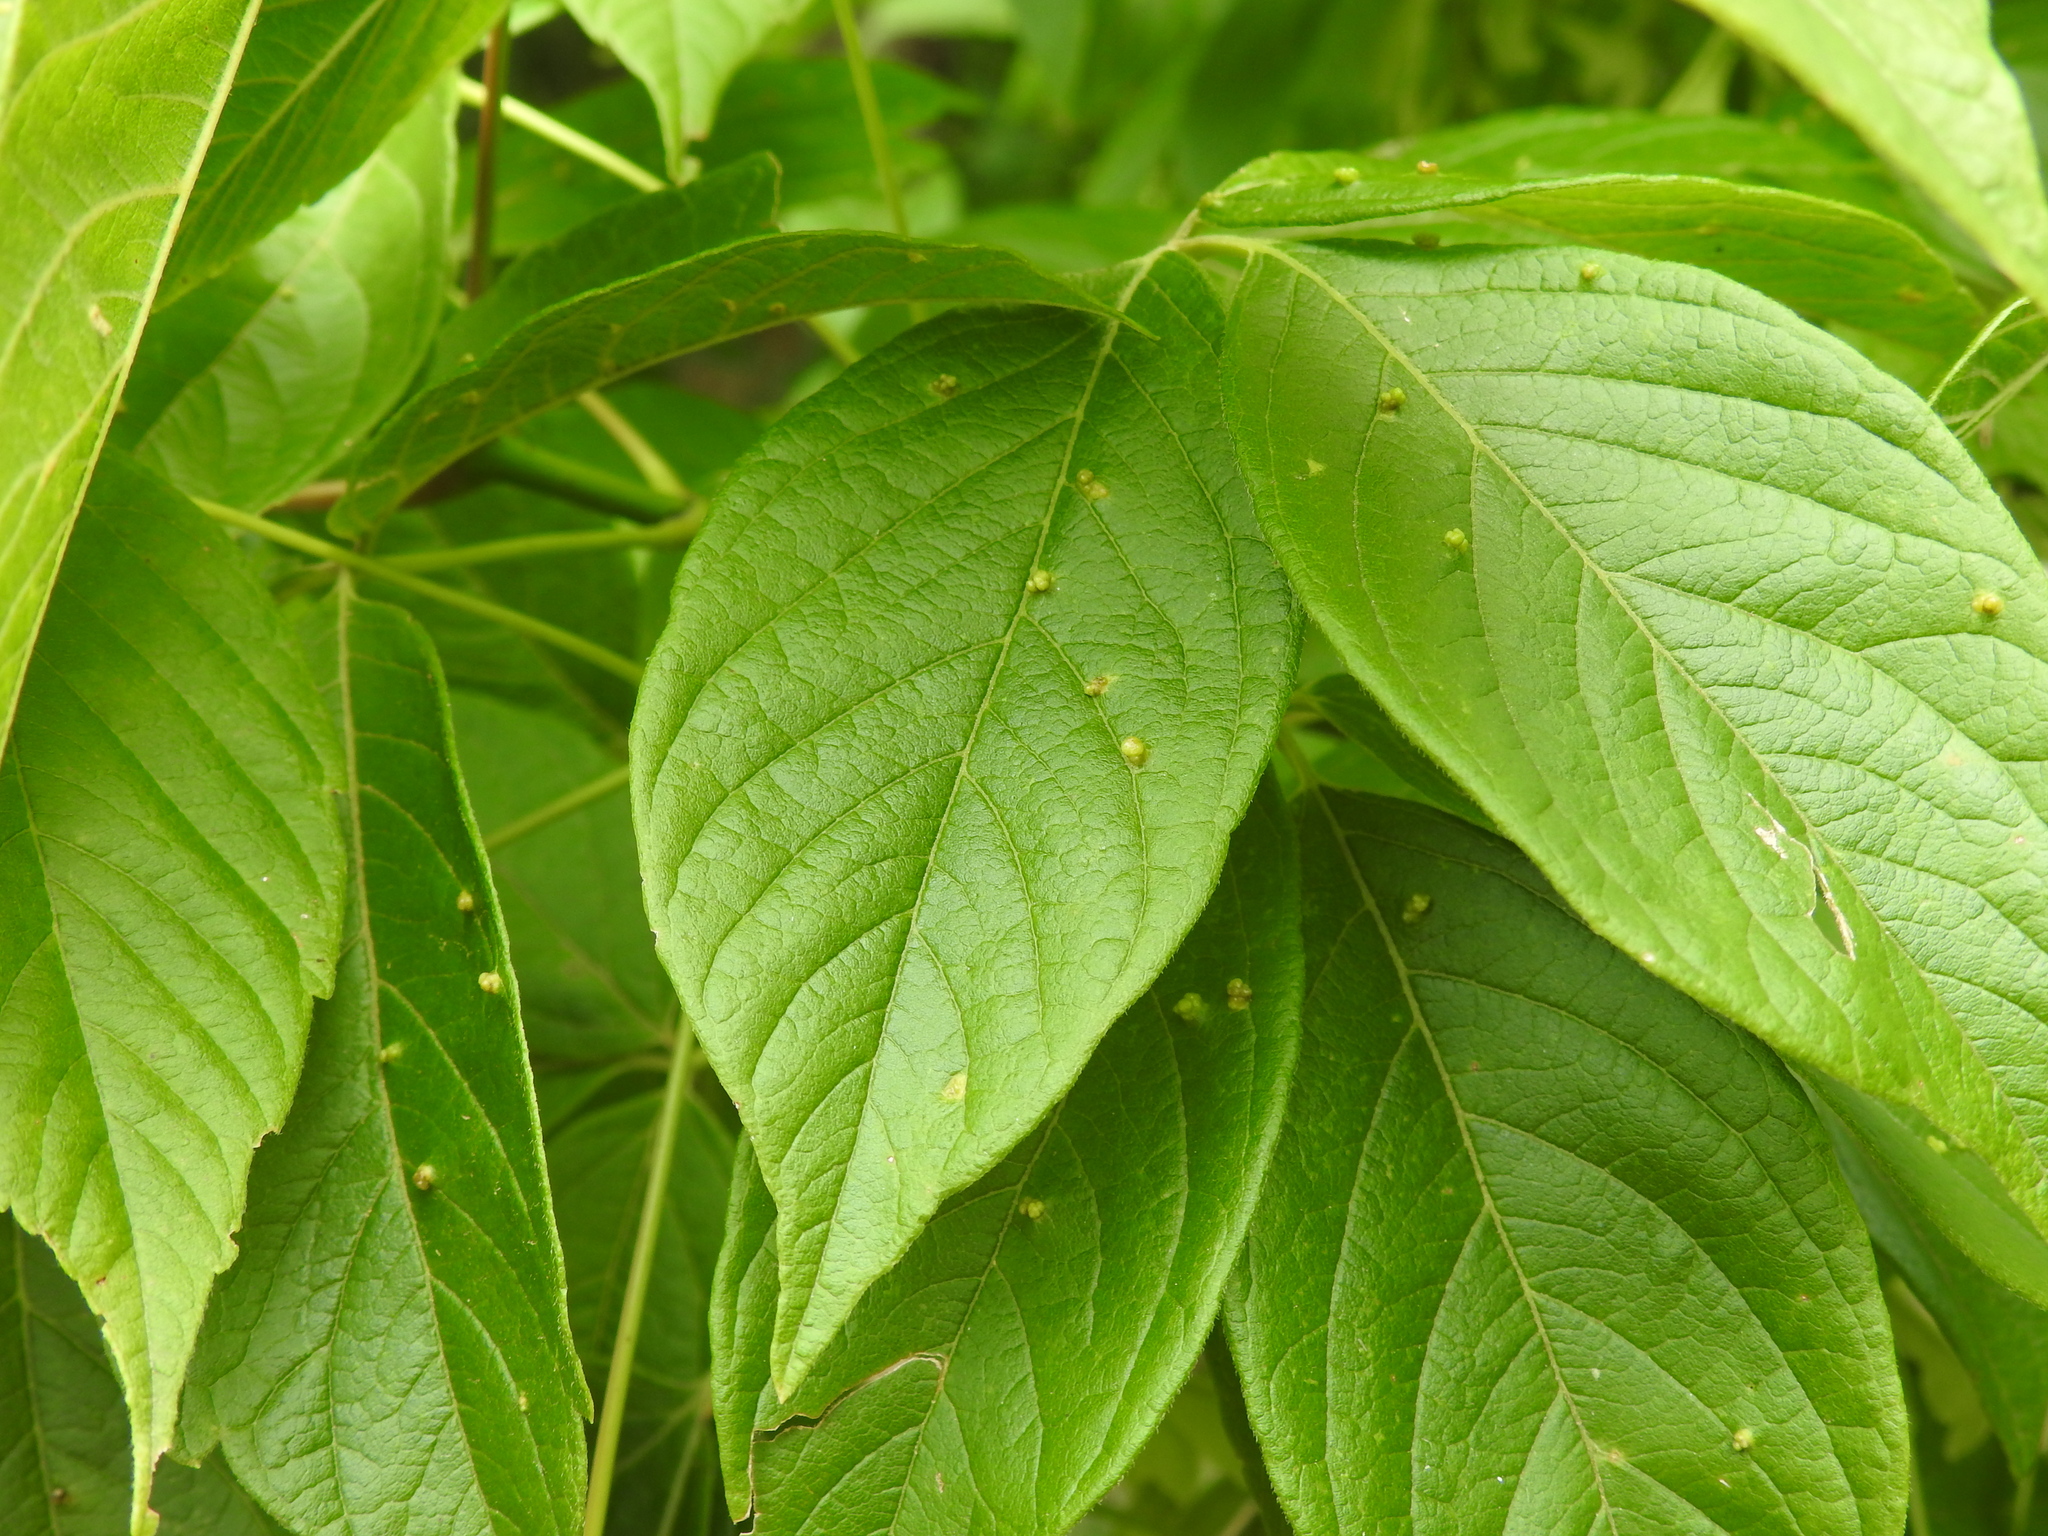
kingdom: Animalia
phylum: Arthropoda
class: Arachnida
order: Trombidiformes
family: Eriophyidae
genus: Aceria
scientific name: Aceria
